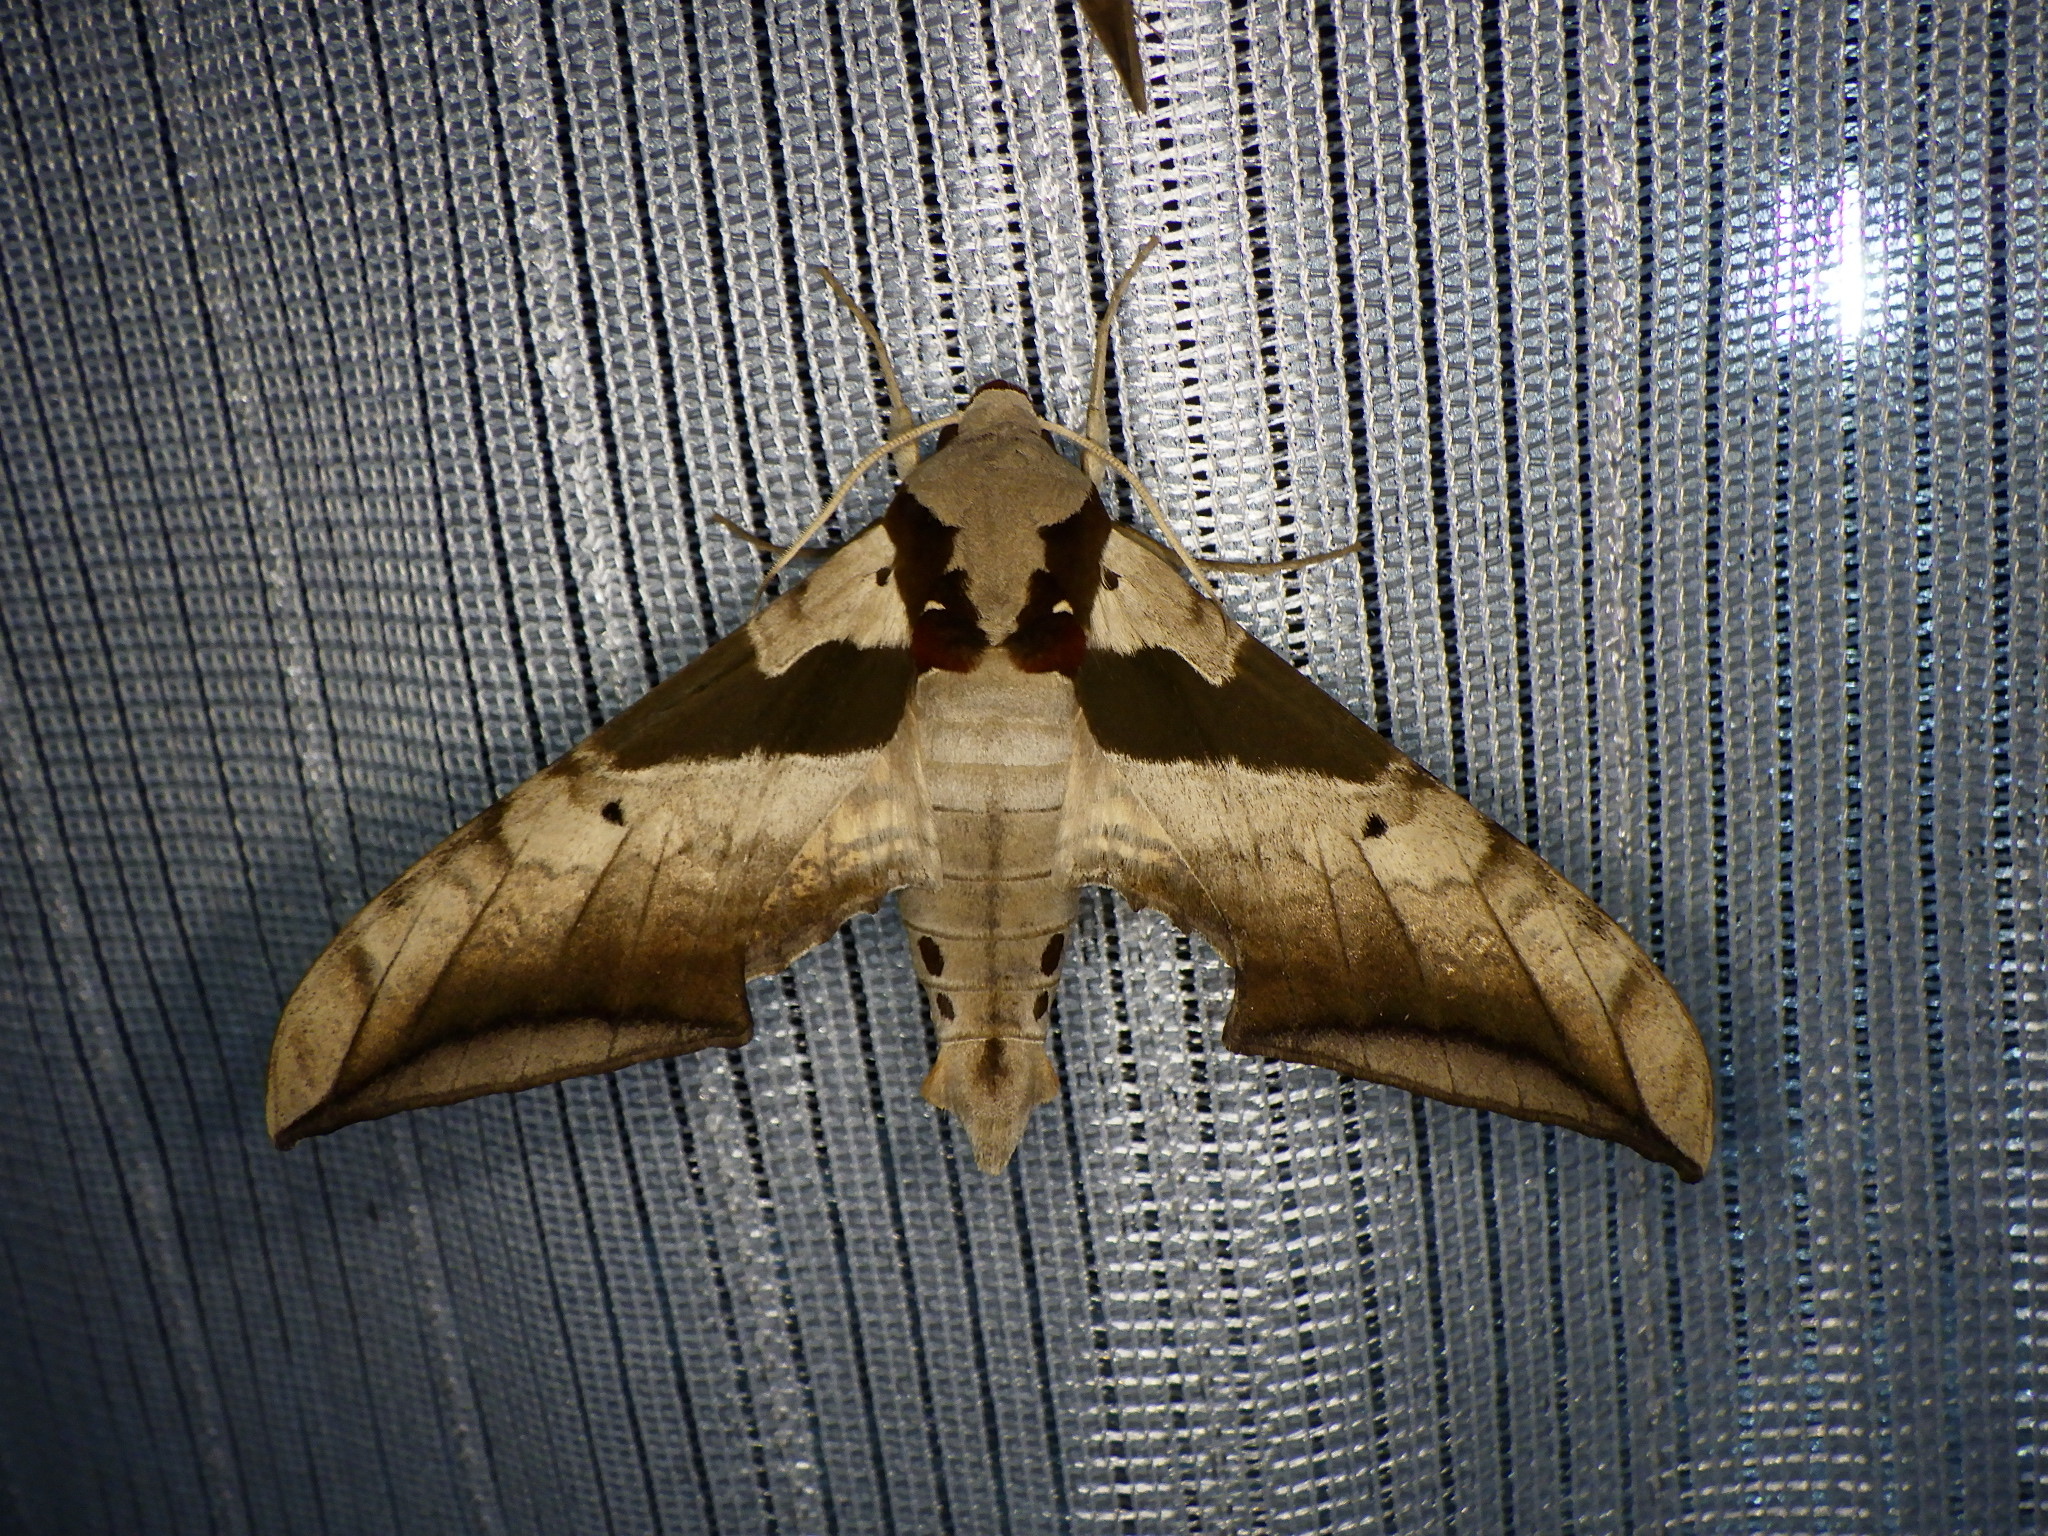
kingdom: Animalia
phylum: Arthropoda
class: Insecta
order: Lepidoptera
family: Sphingidae
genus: Ambulyx
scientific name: Ambulyx japonica
